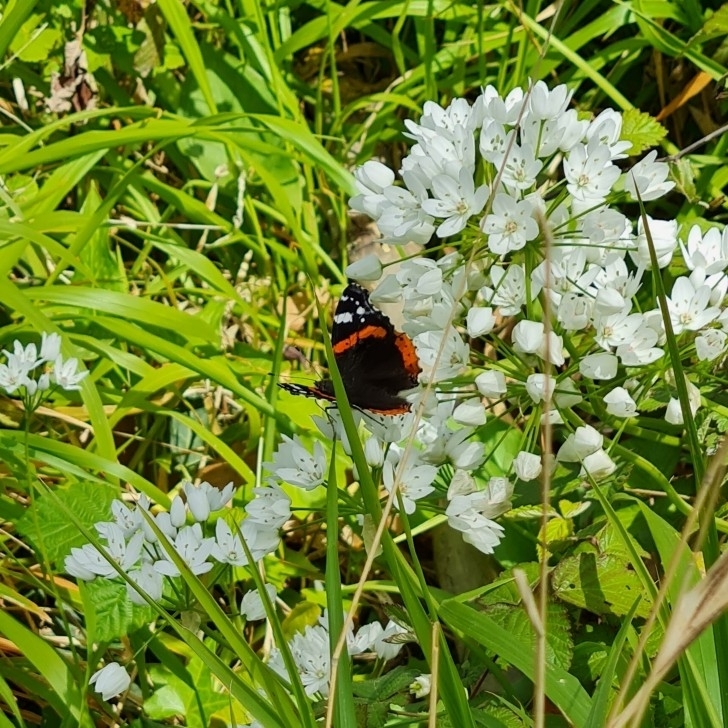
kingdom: Animalia
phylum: Arthropoda
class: Insecta
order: Lepidoptera
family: Nymphalidae
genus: Vanessa
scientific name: Vanessa atalanta
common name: Red admiral
